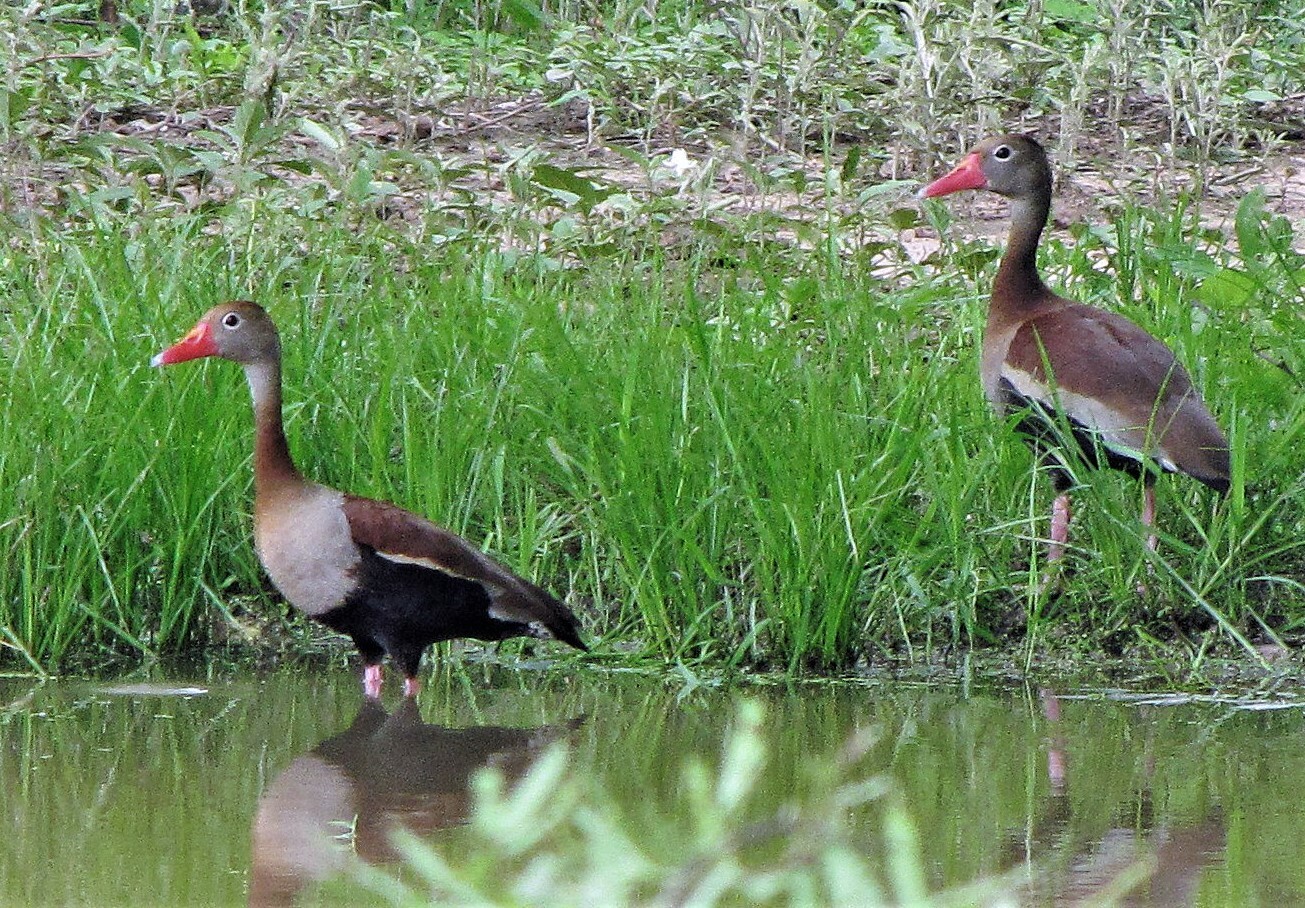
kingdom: Animalia
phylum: Chordata
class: Aves
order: Anseriformes
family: Anatidae
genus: Dendrocygna
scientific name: Dendrocygna autumnalis
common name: Black-bellied whistling duck
